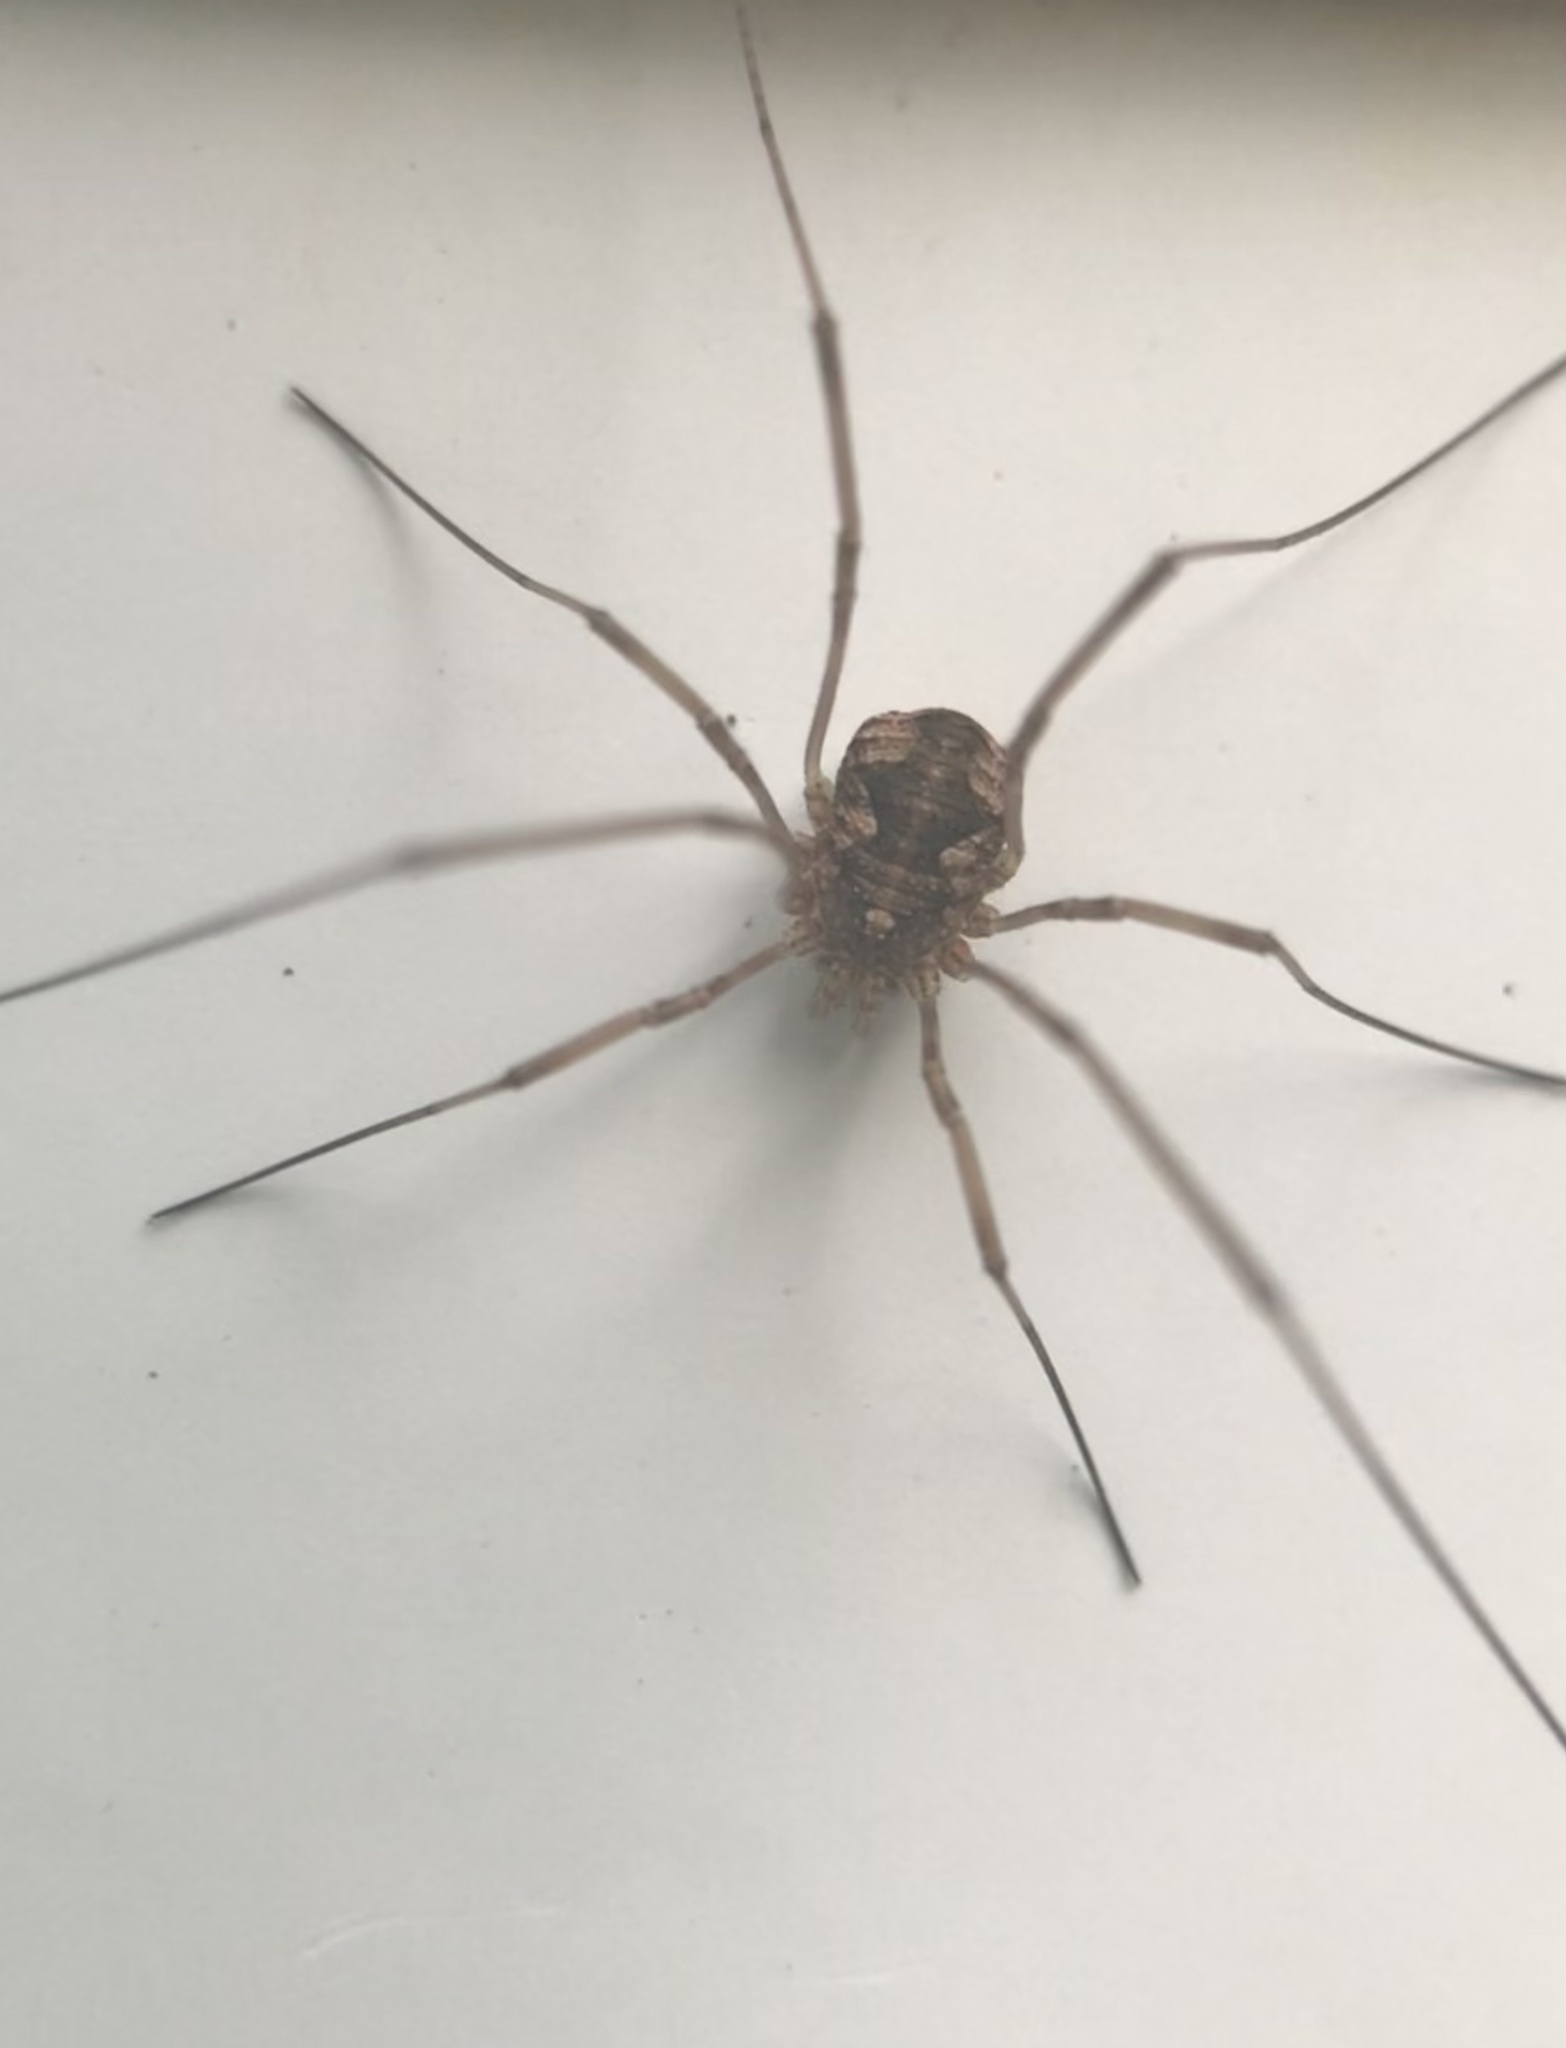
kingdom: Animalia
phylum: Arthropoda
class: Arachnida
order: Opiliones
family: Phalangiidae
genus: Phalangium
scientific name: Phalangium opilio
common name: Daddy longleg
